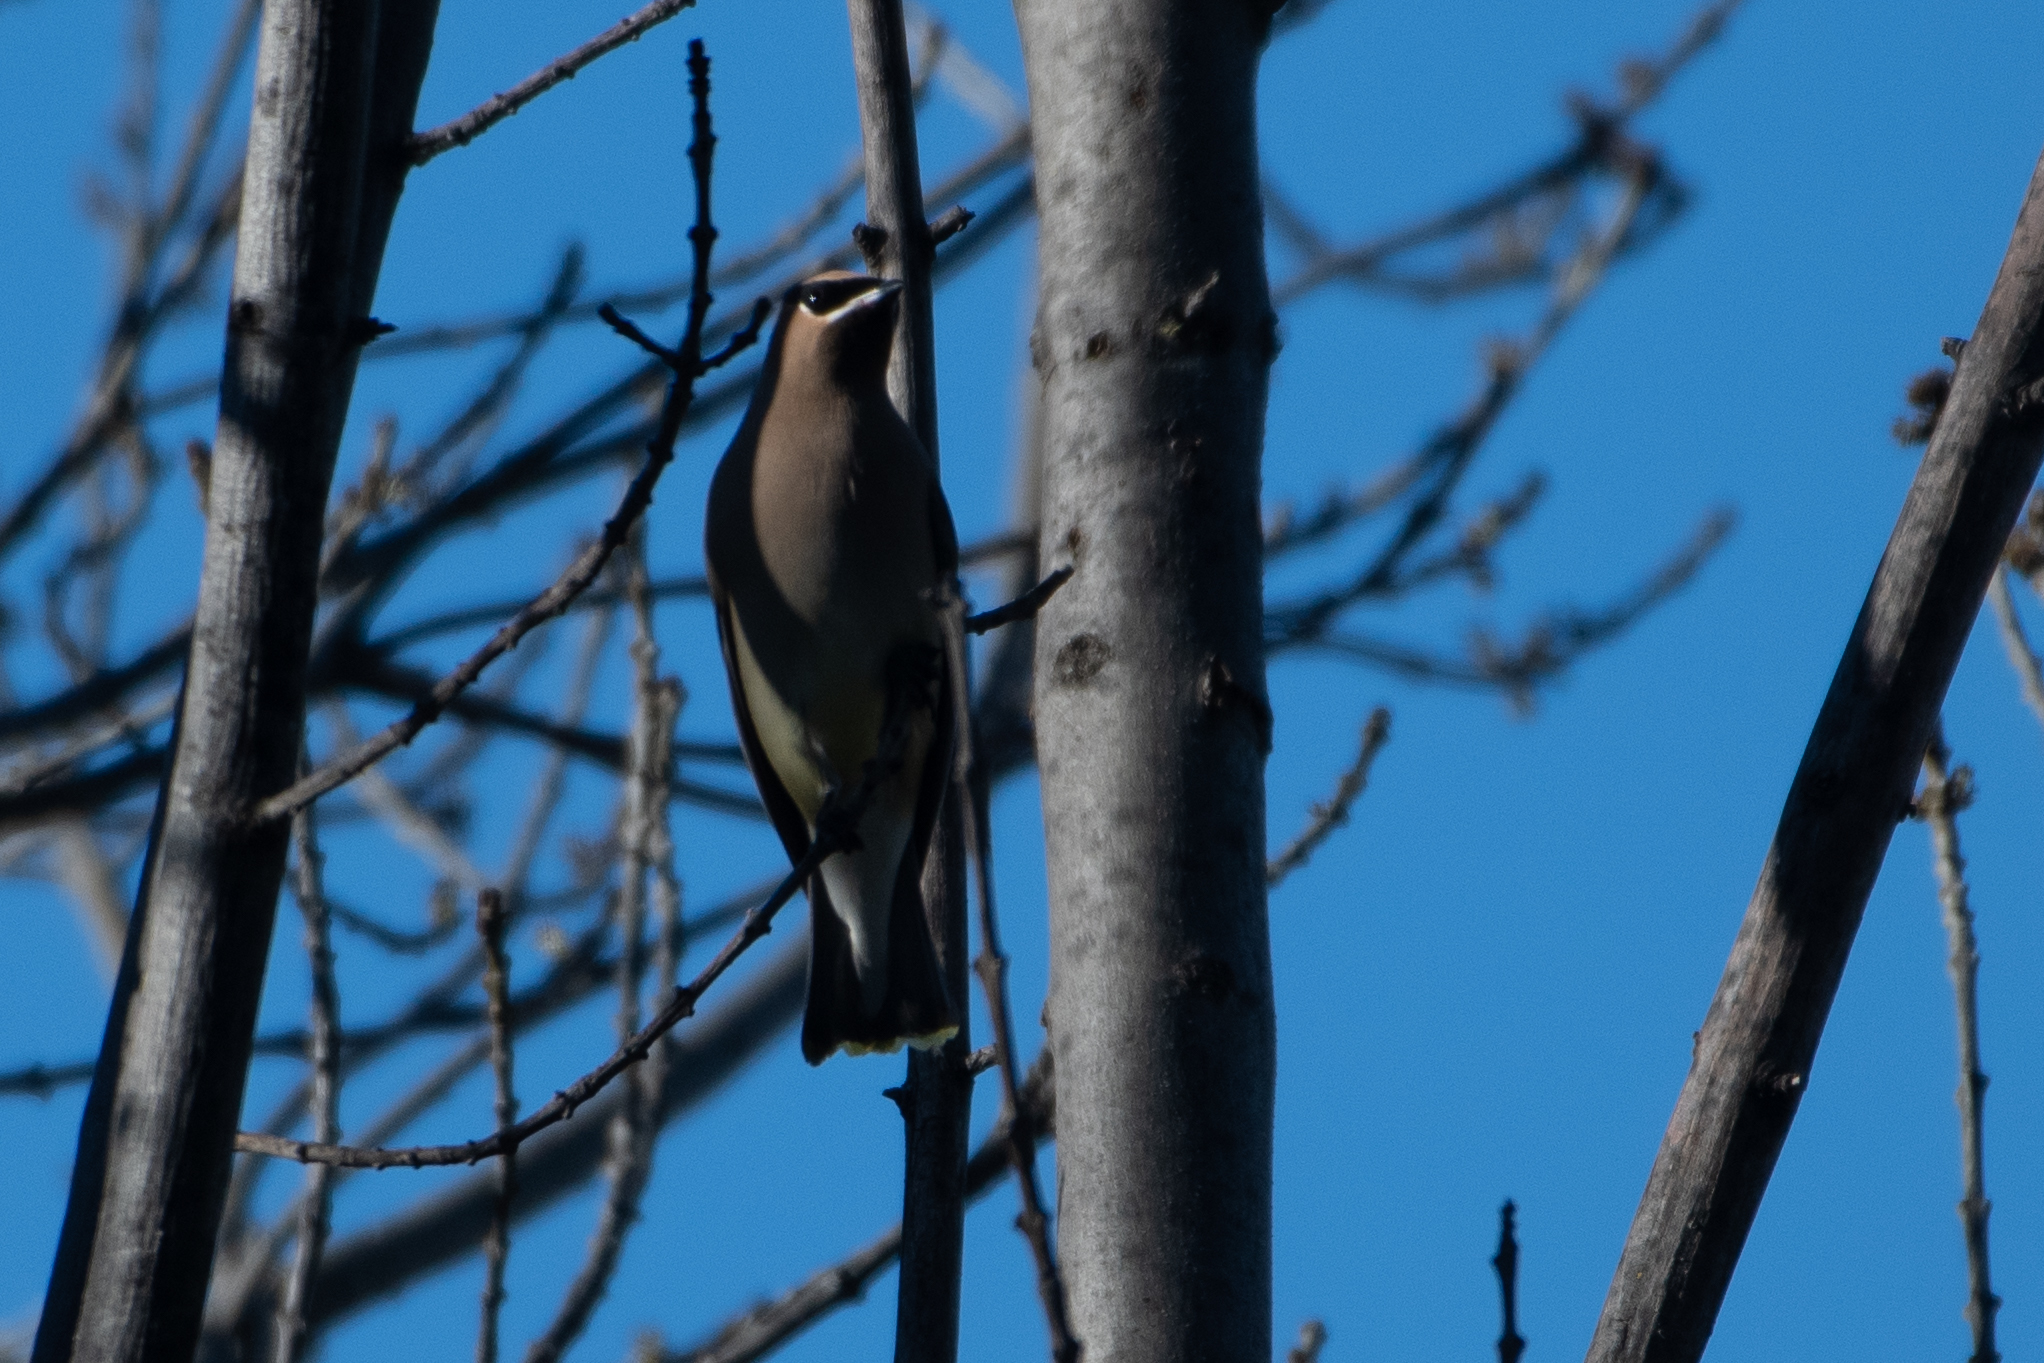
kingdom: Animalia
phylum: Chordata
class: Aves
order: Passeriformes
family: Bombycillidae
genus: Bombycilla
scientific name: Bombycilla cedrorum
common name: Cedar waxwing
